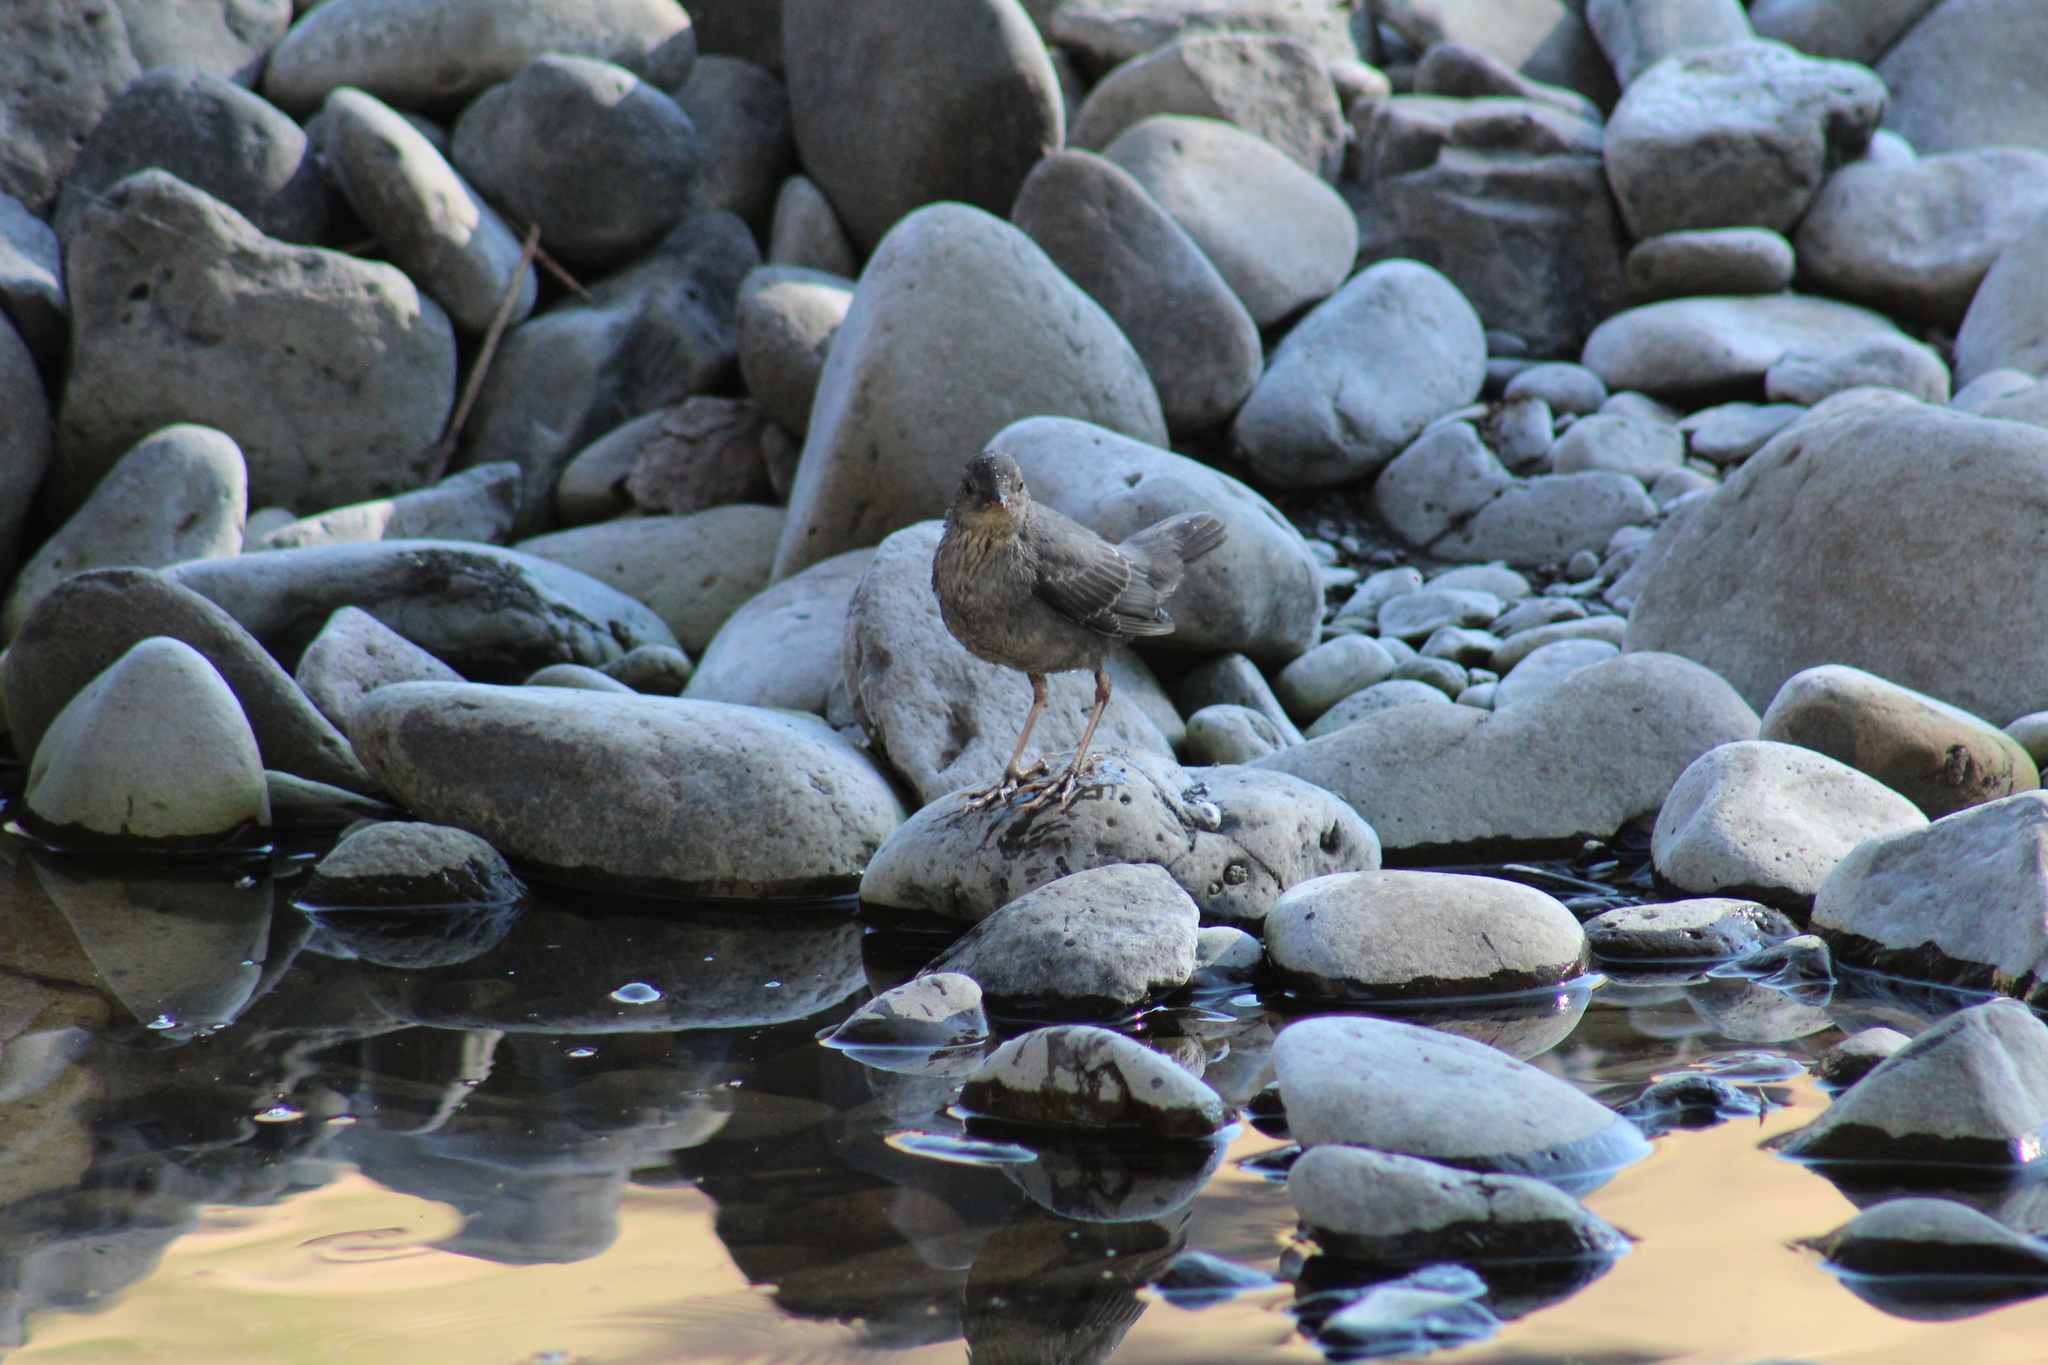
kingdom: Animalia
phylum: Chordata
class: Aves
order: Passeriformes
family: Cinclidae
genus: Cinclus
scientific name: Cinclus mexicanus
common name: American dipper
